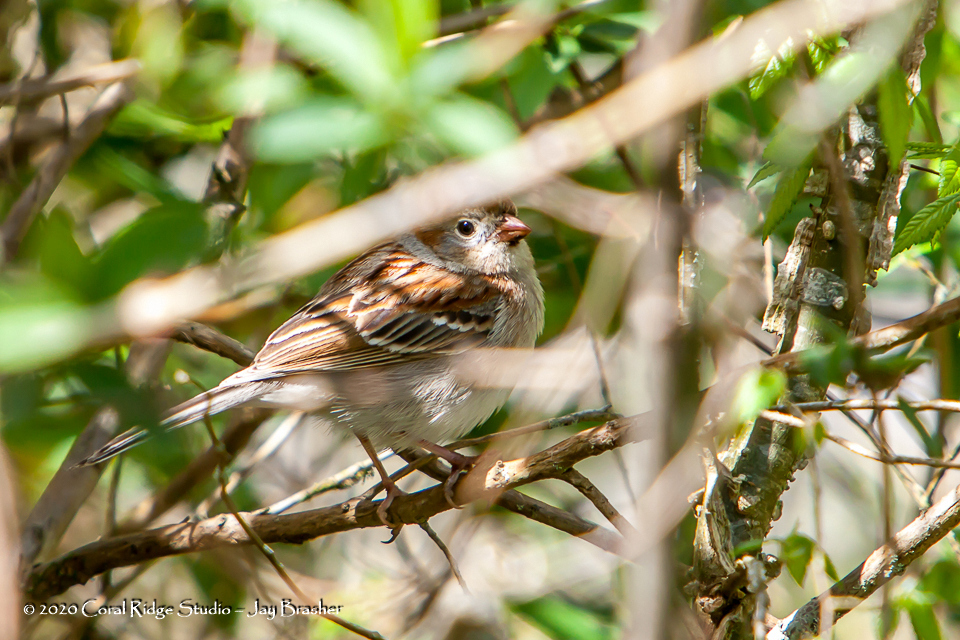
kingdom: Animalia
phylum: Chordata
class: Aves
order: Passeriformes
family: Passerellidae
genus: Spizella
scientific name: Spizella pusilla
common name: Field sparrow
